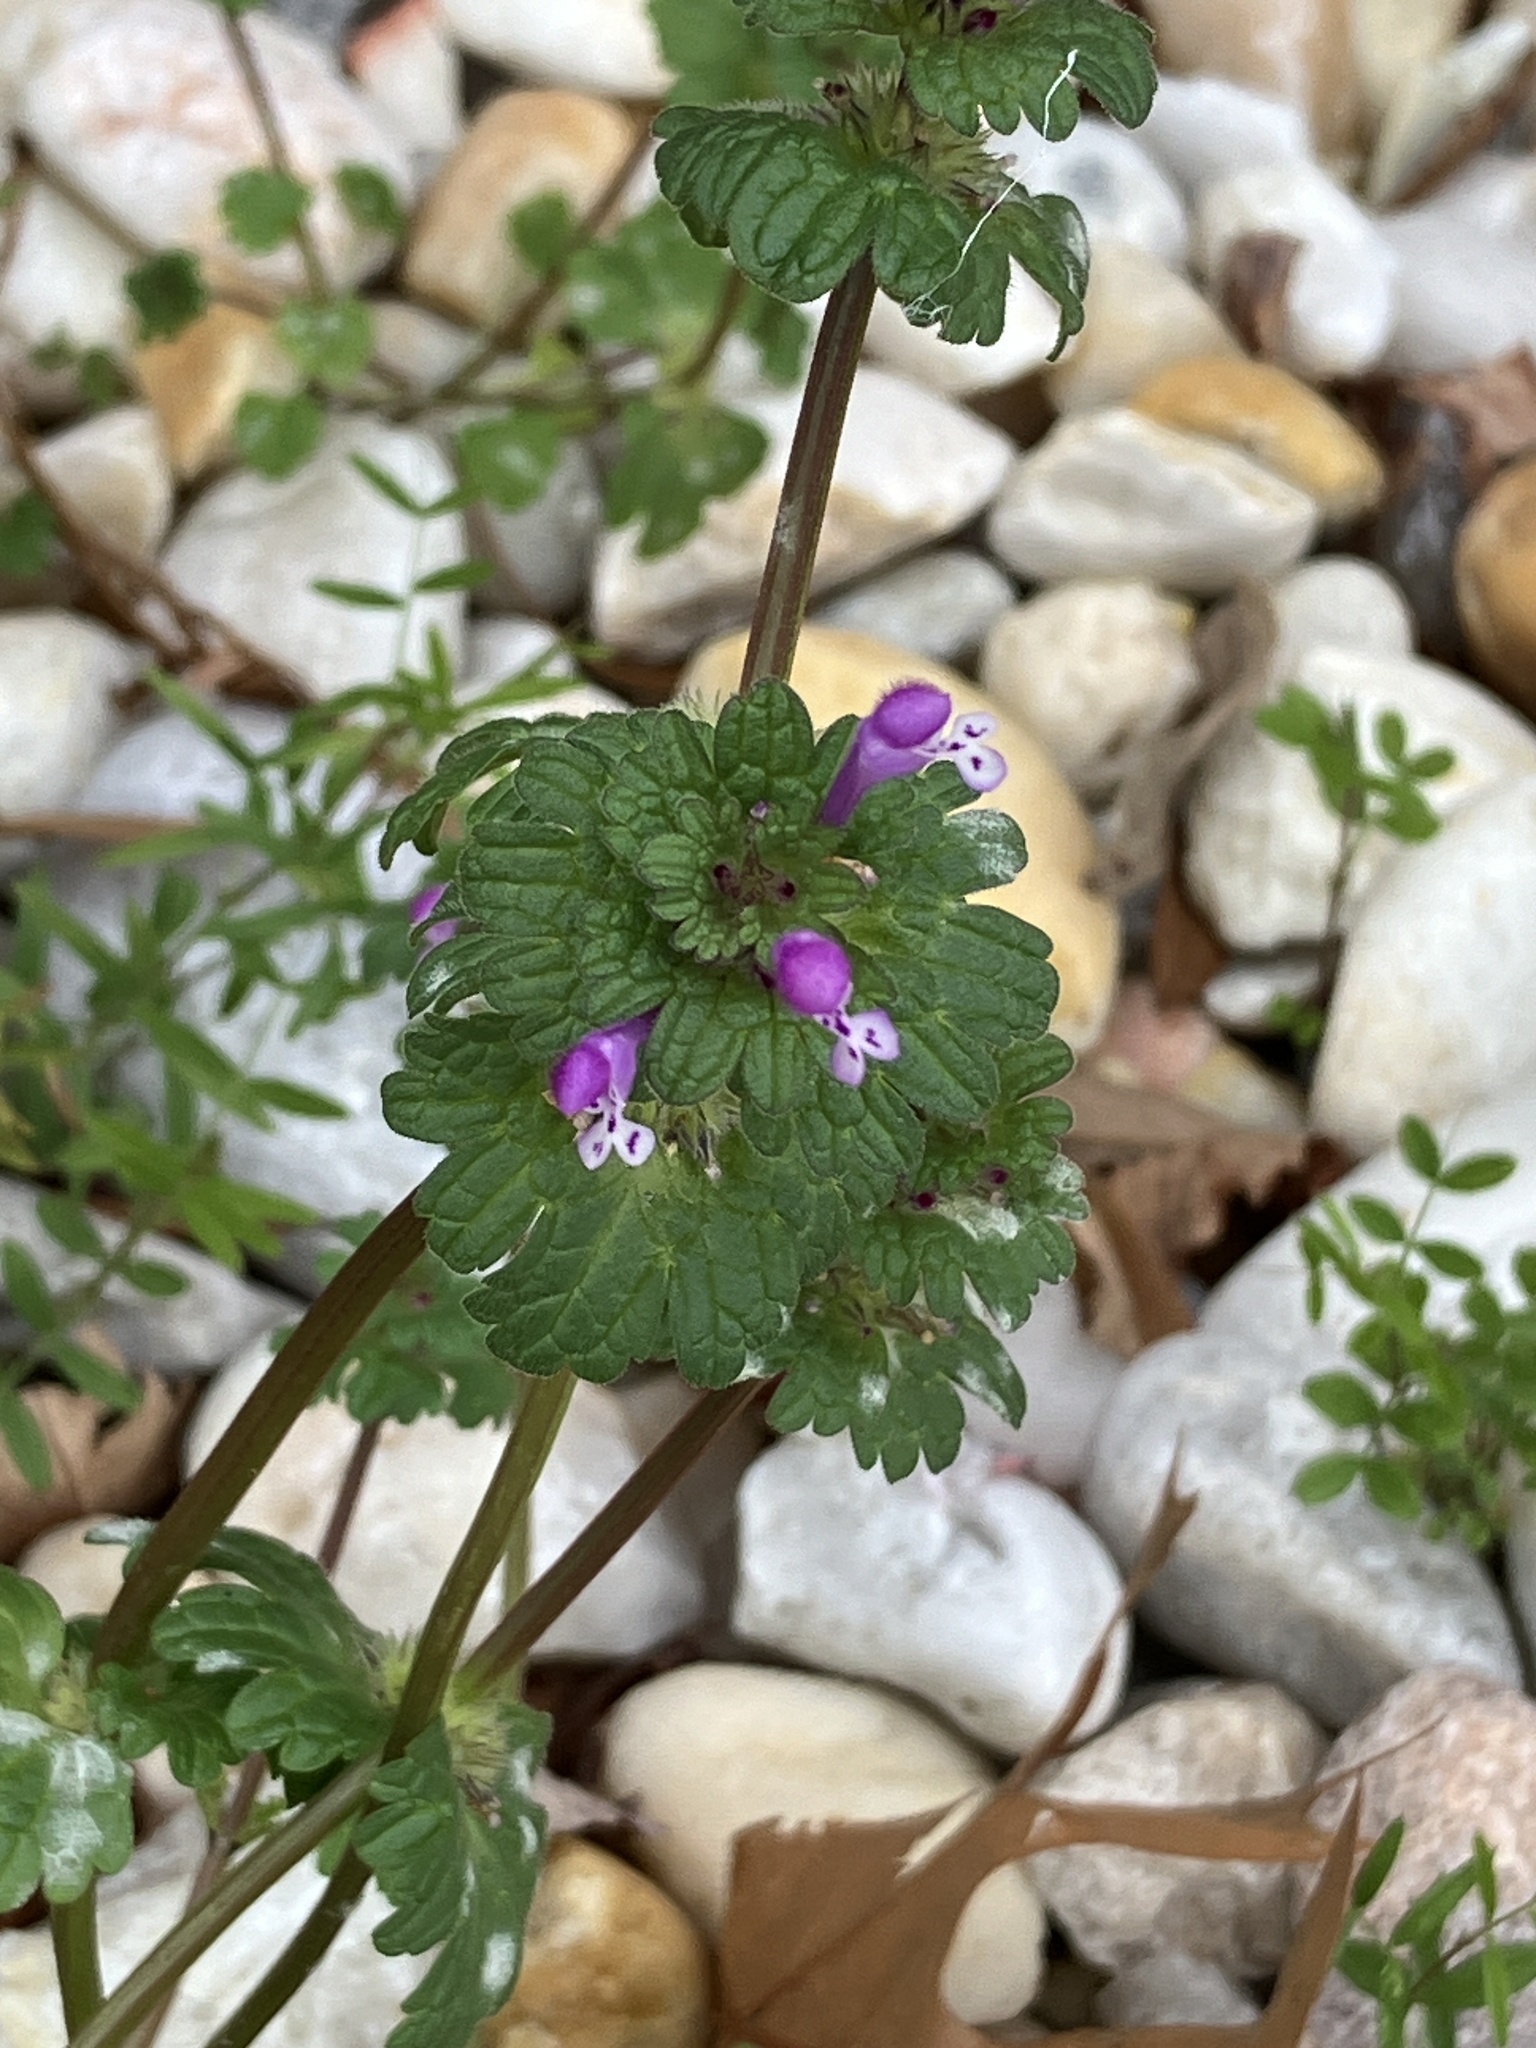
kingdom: Plantae
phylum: Tracheophyta
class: Magnoliopsida
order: Lamiales
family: Lamiaceae
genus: Lamium
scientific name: Lamium amplexicaule
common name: Henbit dead-nettle
